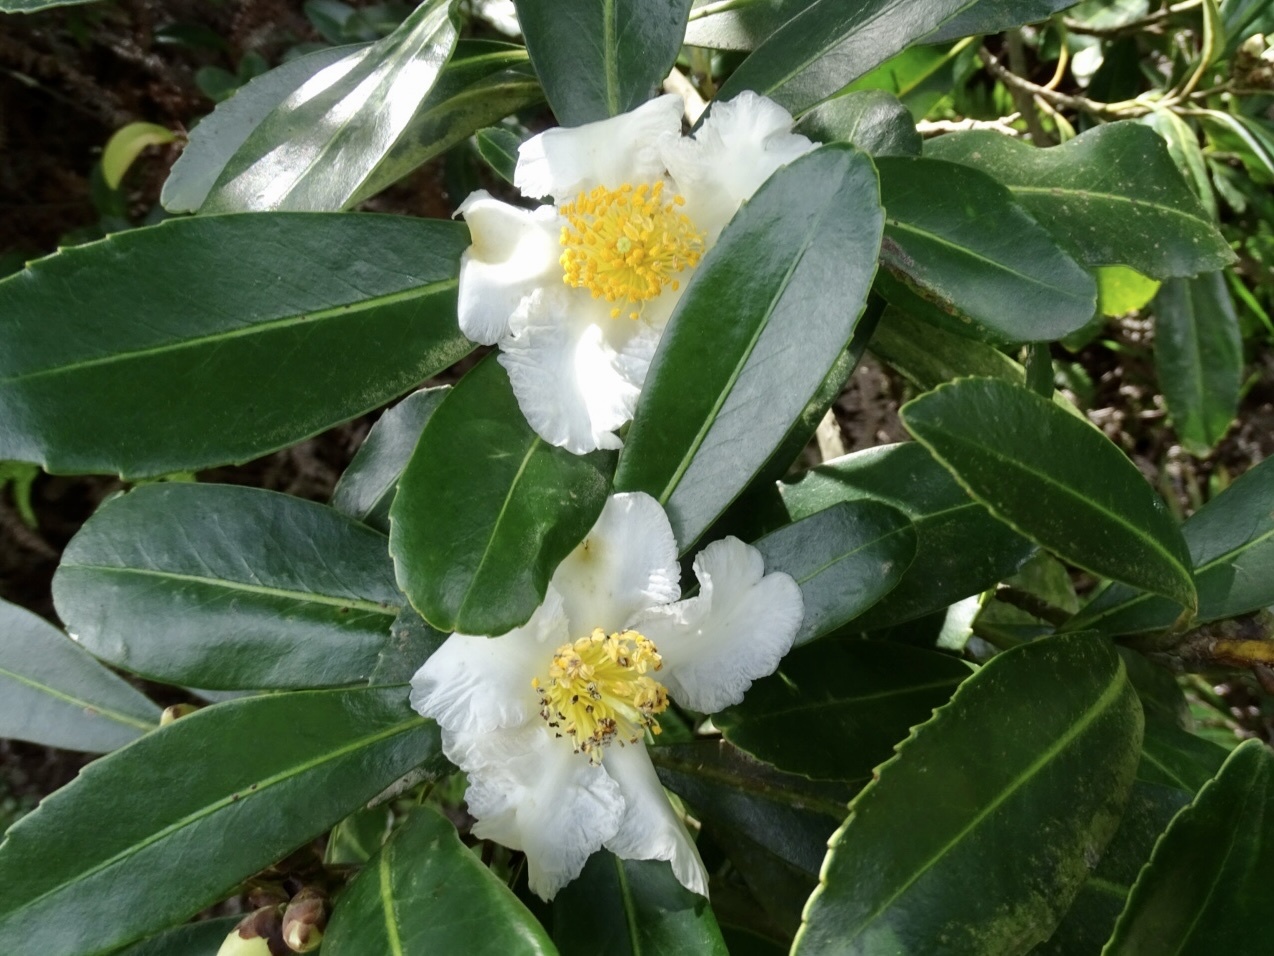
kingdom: Plantae
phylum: Tracheophyta
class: Magnoliopsida
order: Ericales
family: Theaceae
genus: Polyspora
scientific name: Polyspora axillaris
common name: Fried egg tree
